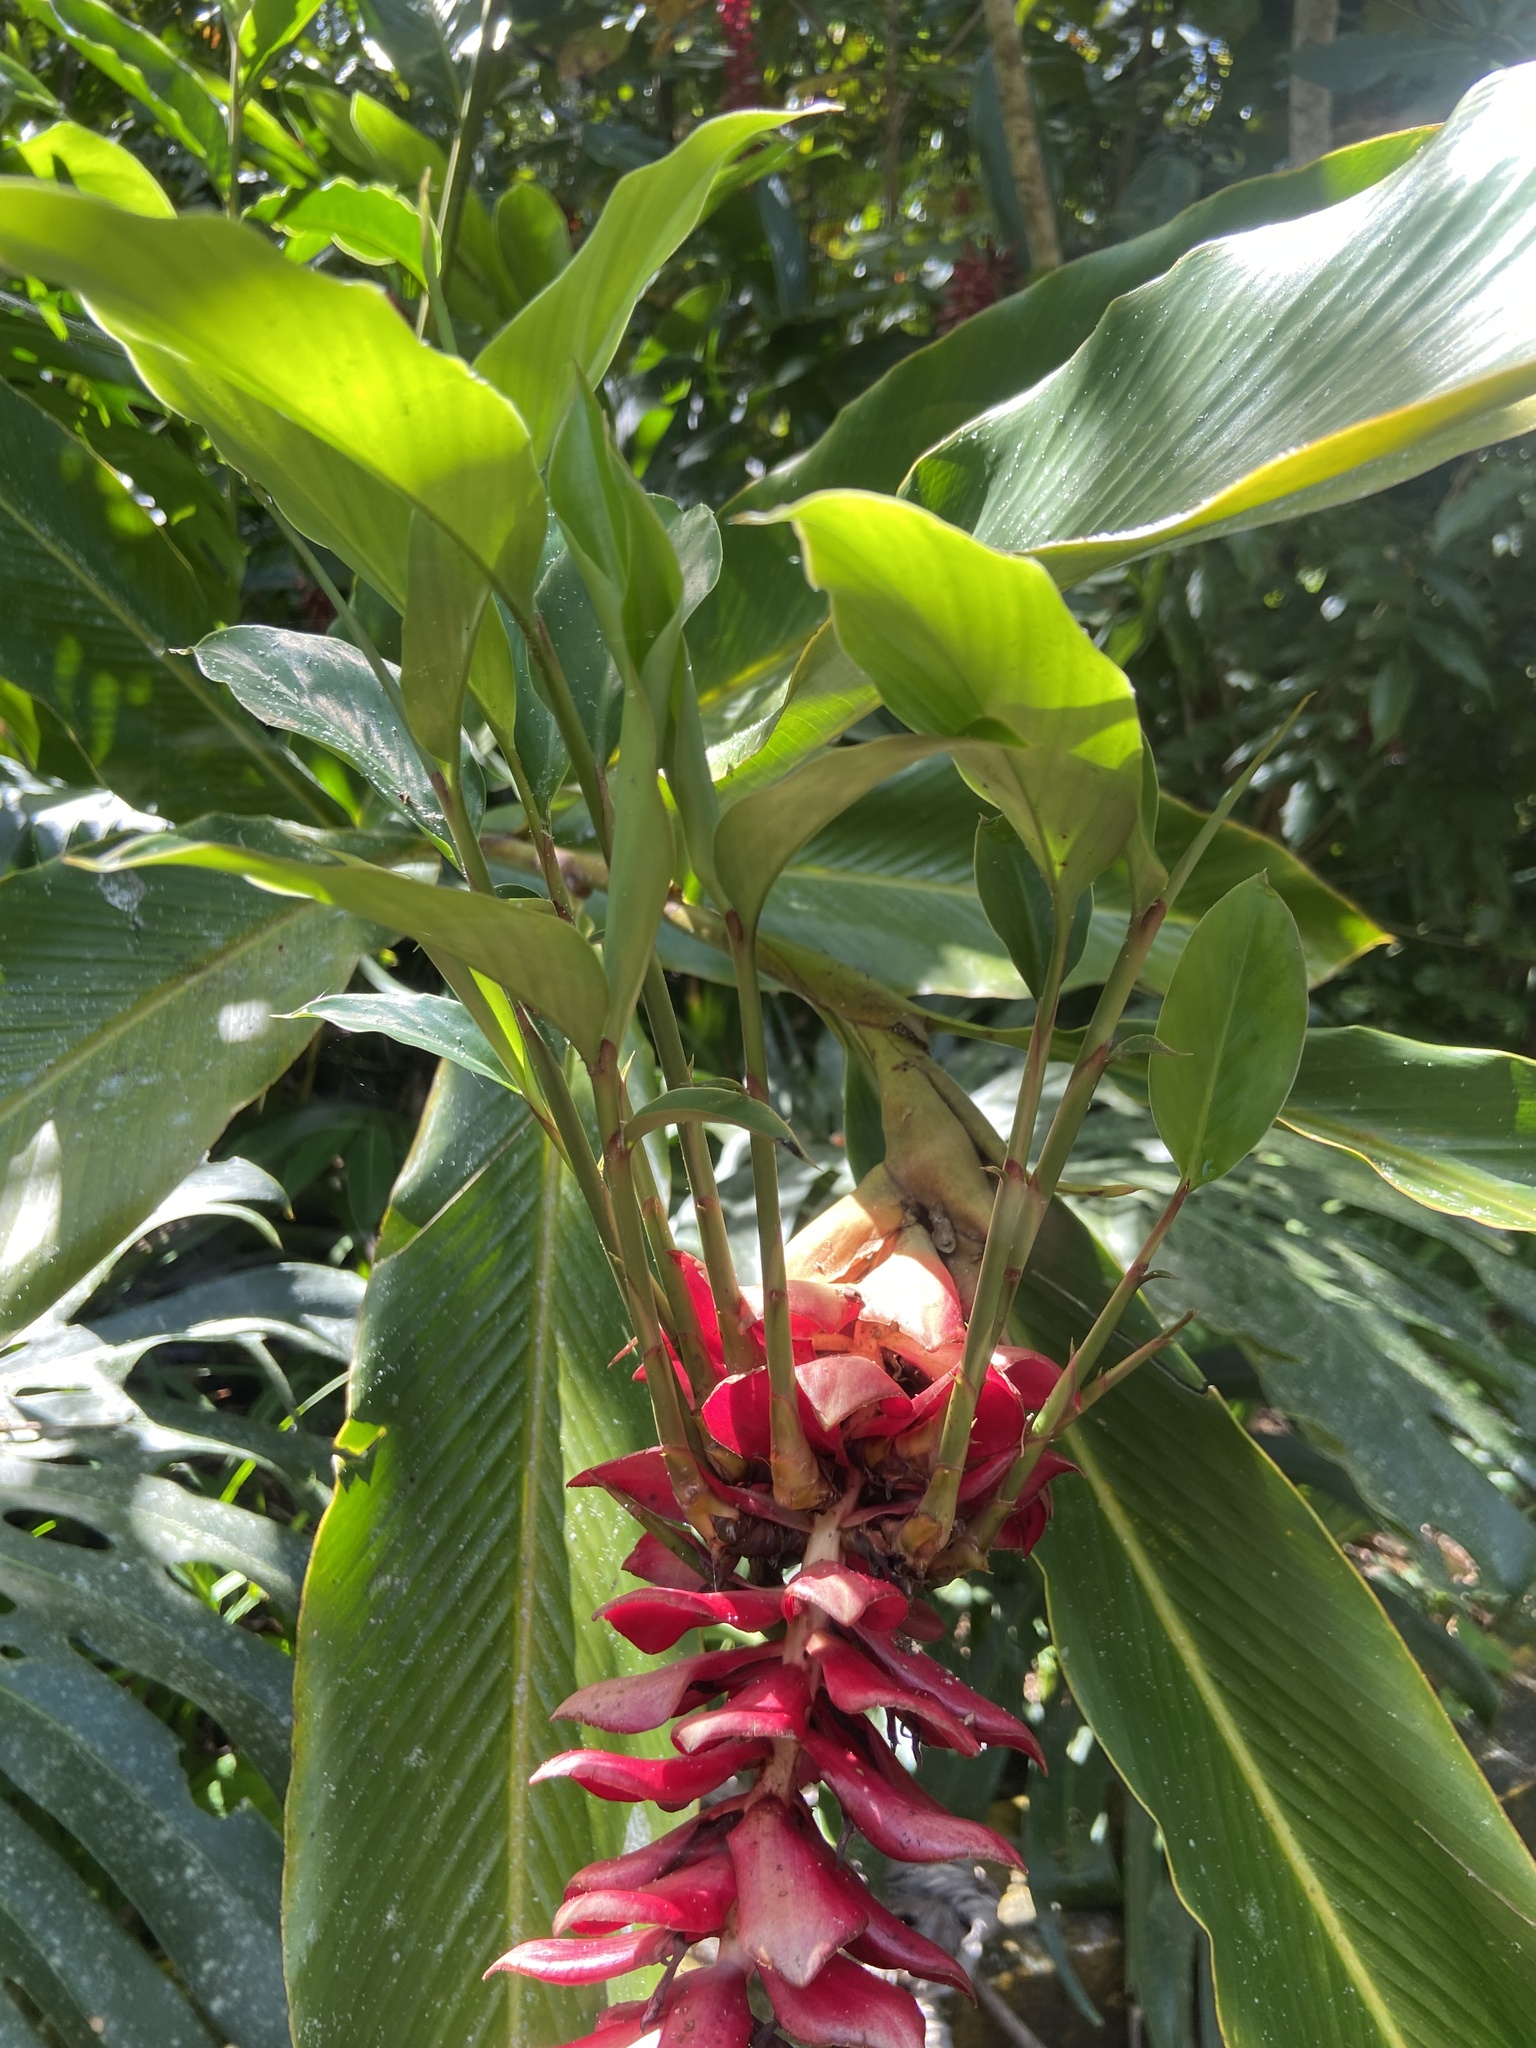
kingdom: Plantae
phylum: Tracheophyta
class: Liliopsida
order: Zingiberales
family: Zingiberaceae
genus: Alpinia
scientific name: Alpinia purpurata
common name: Red ginger
